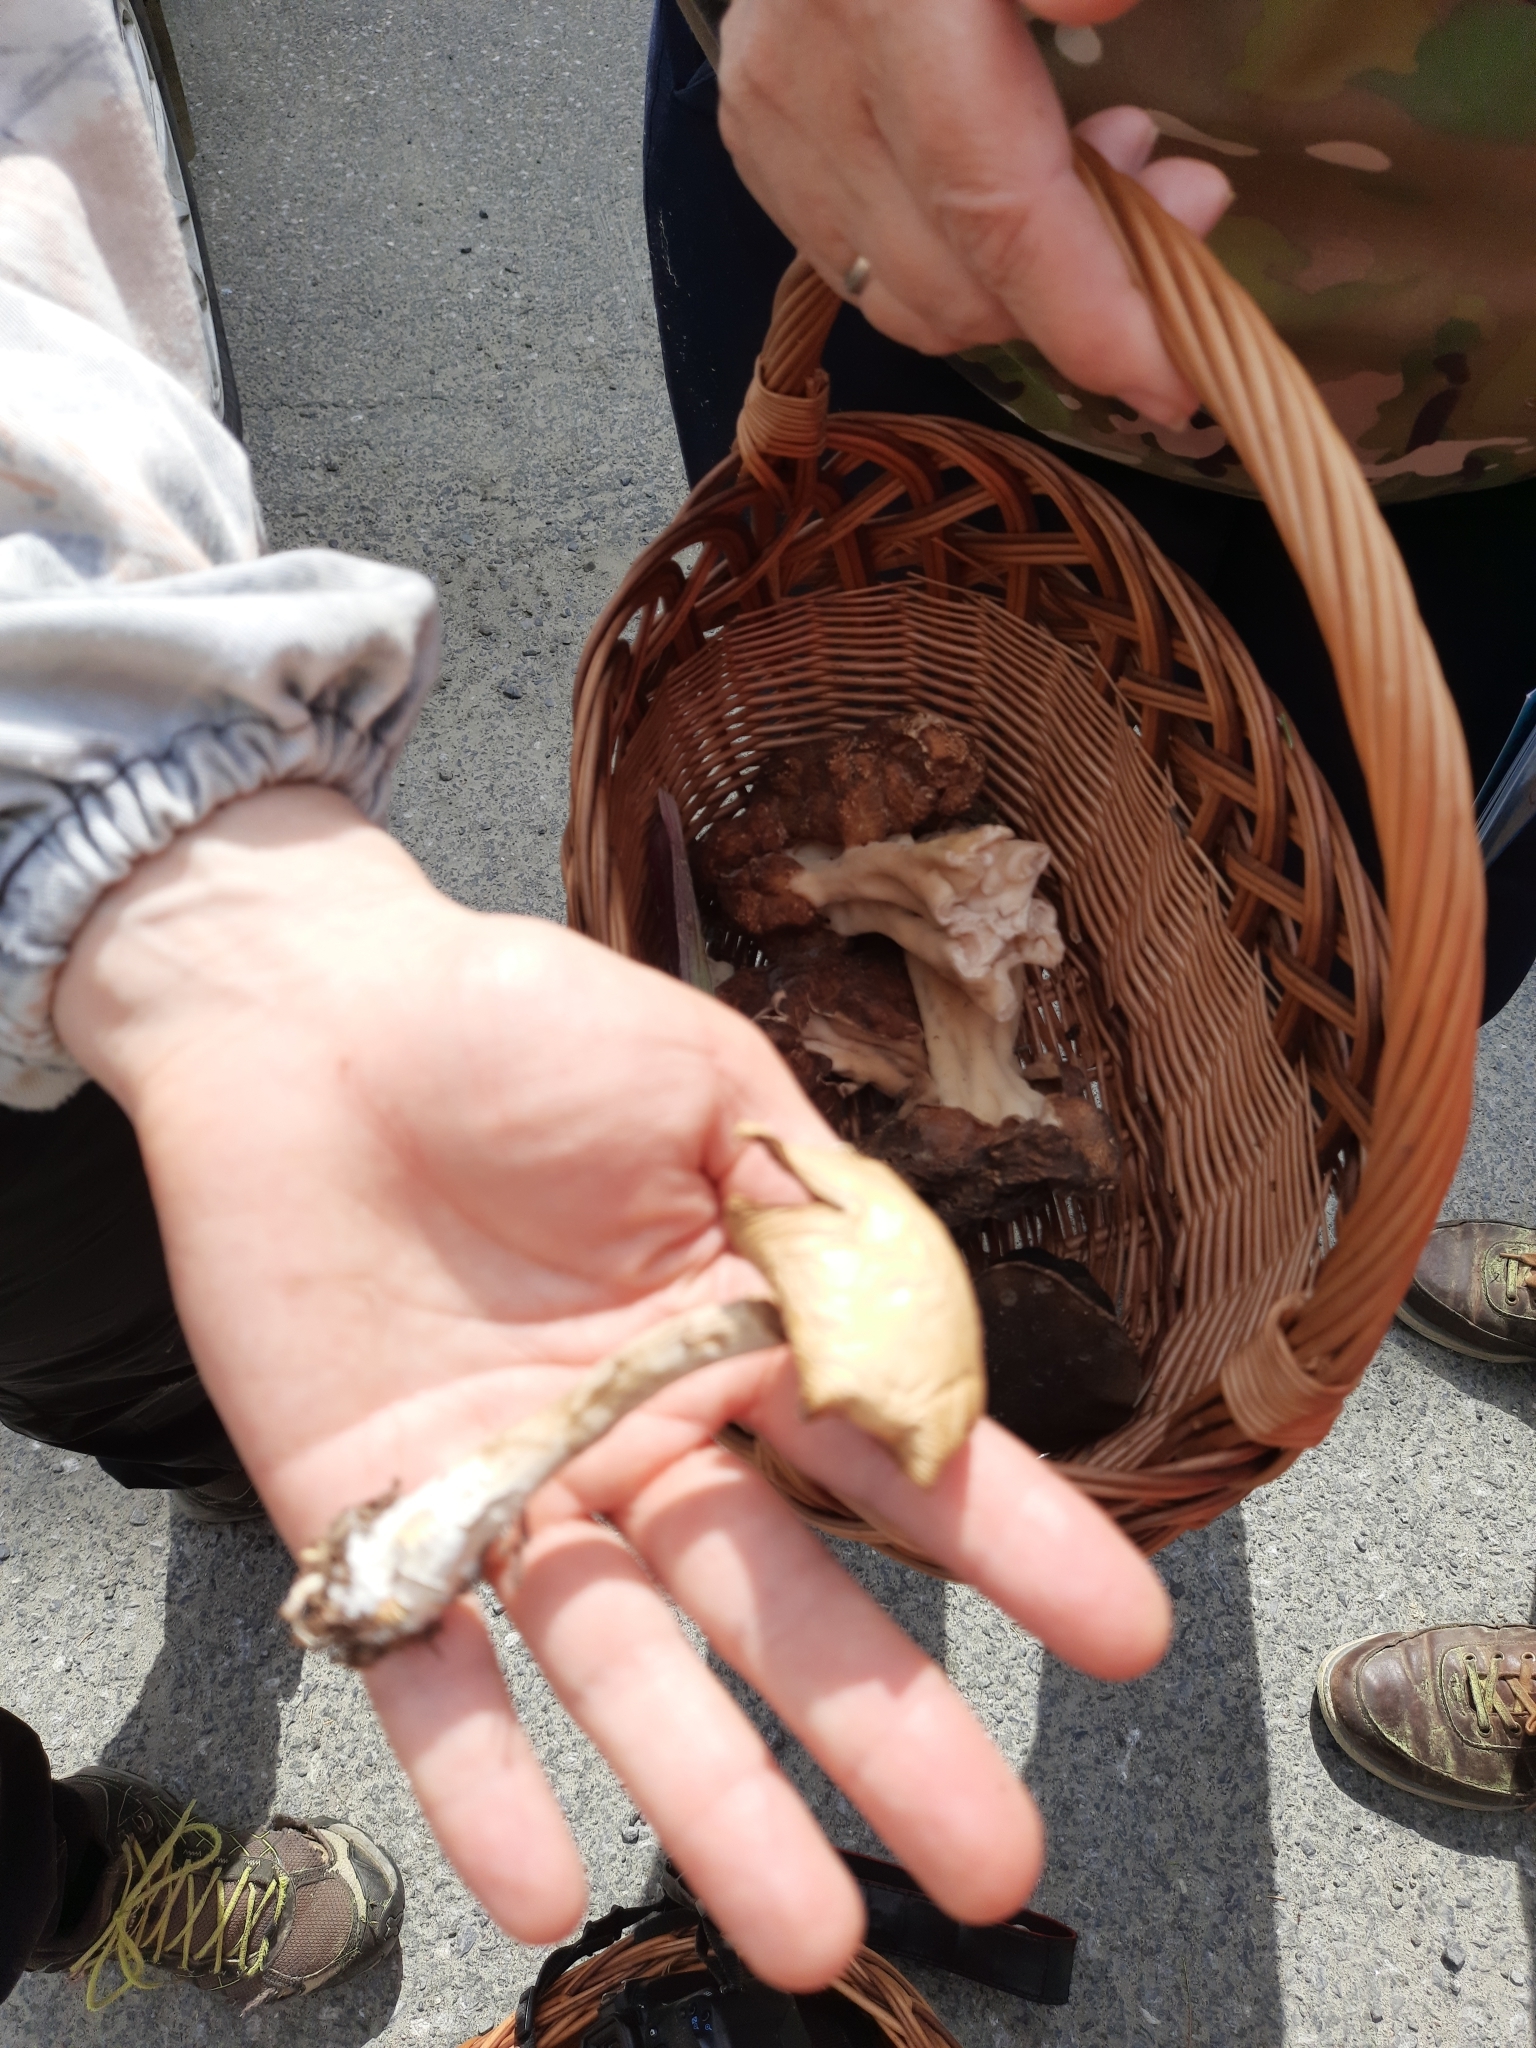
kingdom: Fungi
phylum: Basidiomycota
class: Agaricomycetes
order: Agaricales
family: Strophariaceae
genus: Agrocybe
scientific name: Agrocybe praecox
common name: Spring fieldcap
